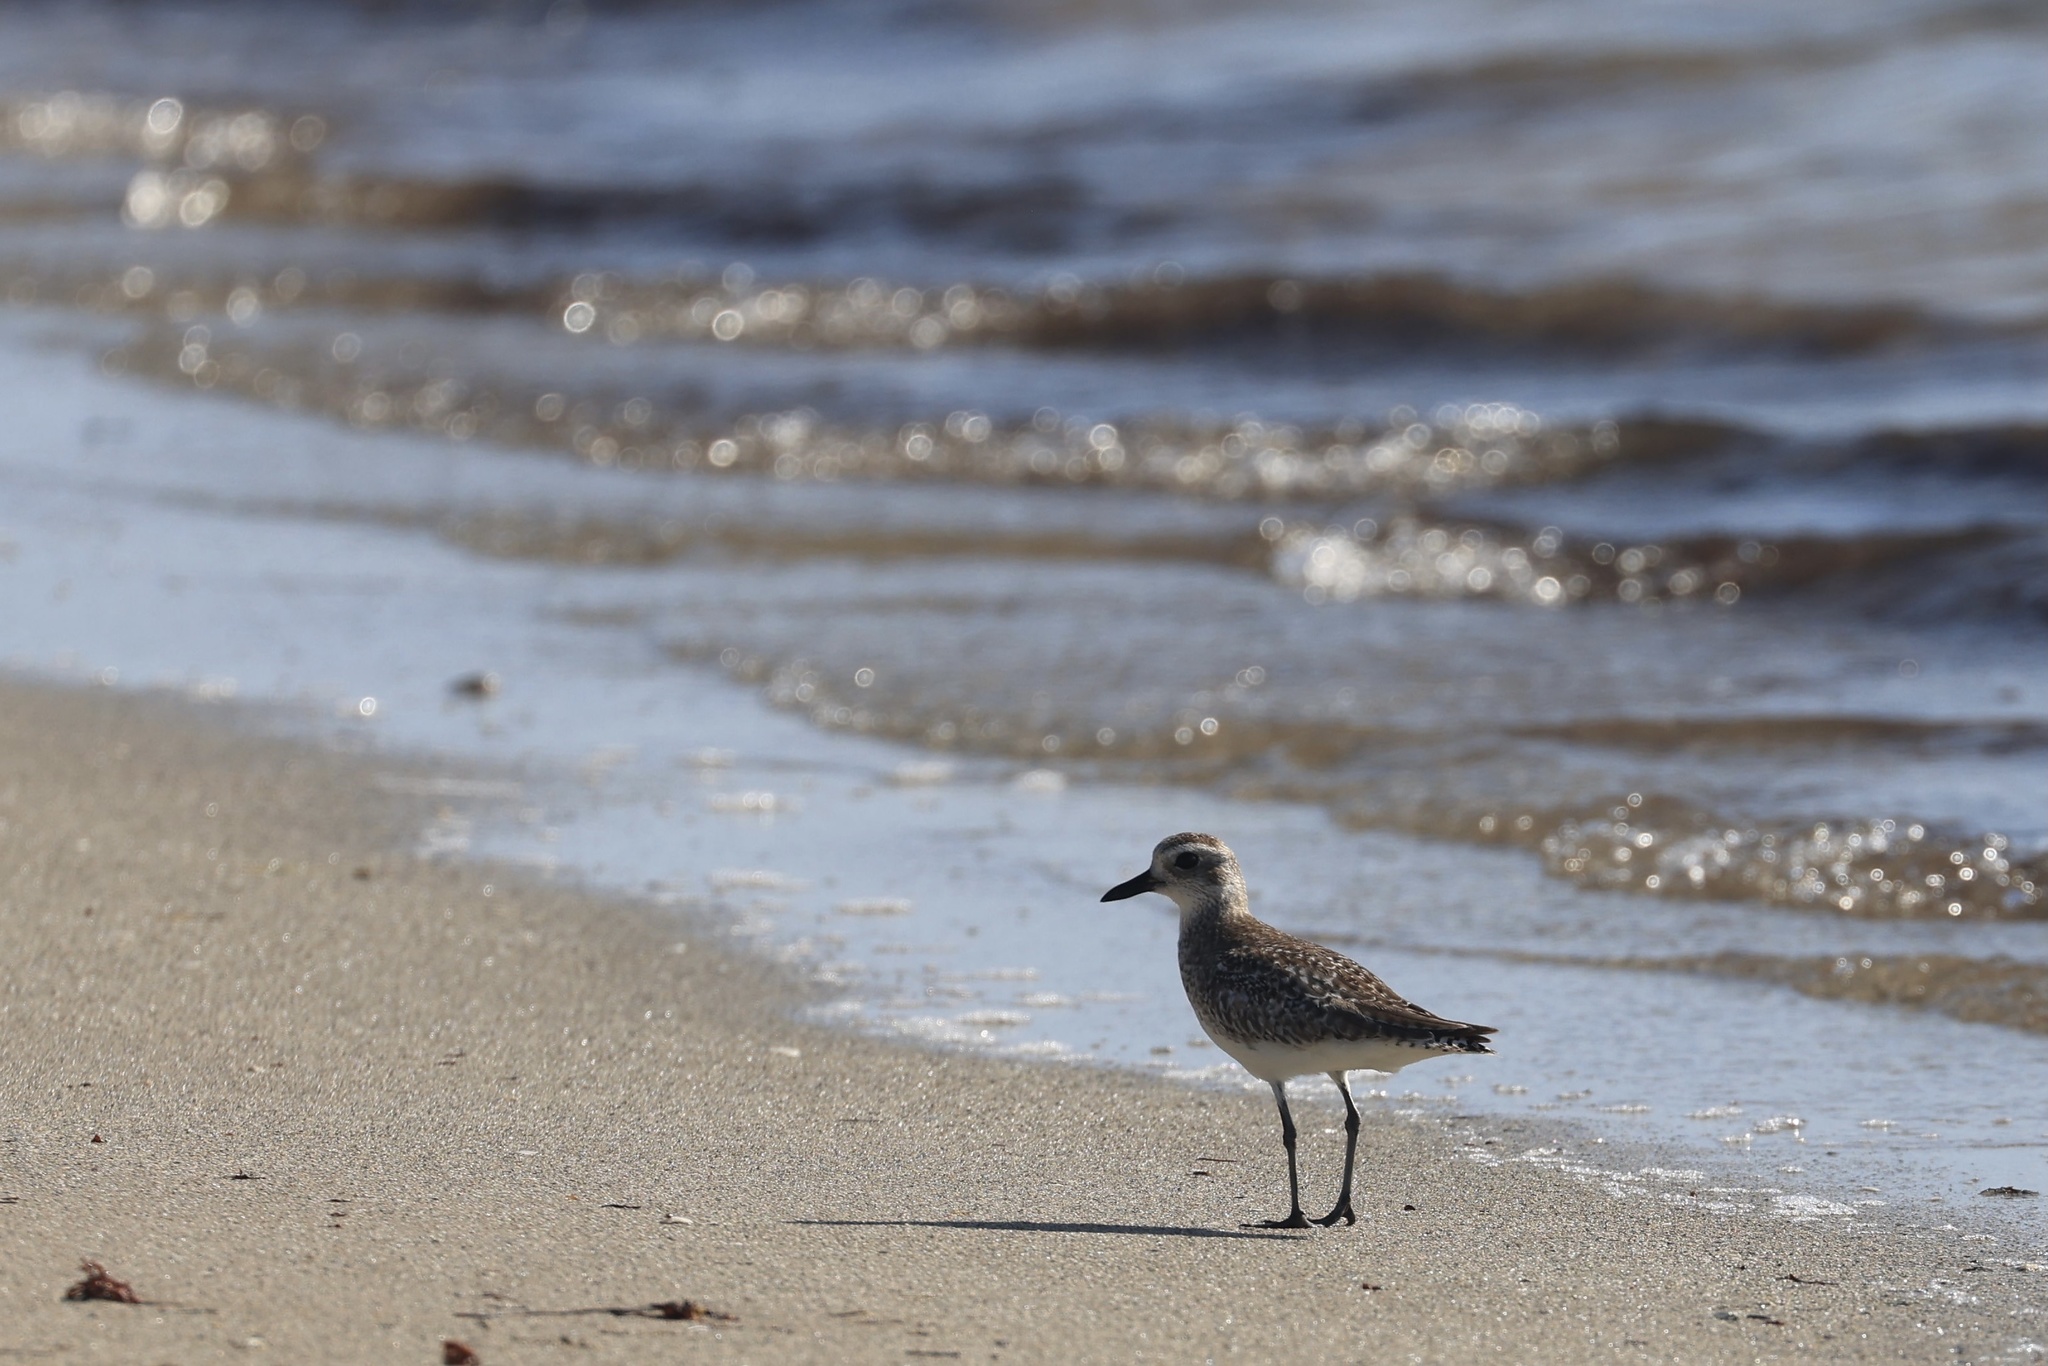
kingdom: Animalia
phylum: Chordata
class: Aves
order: Charadriiformes
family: Charadriidae
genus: Pluvialis
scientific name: Pluvialis squatarola
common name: Grey plover
